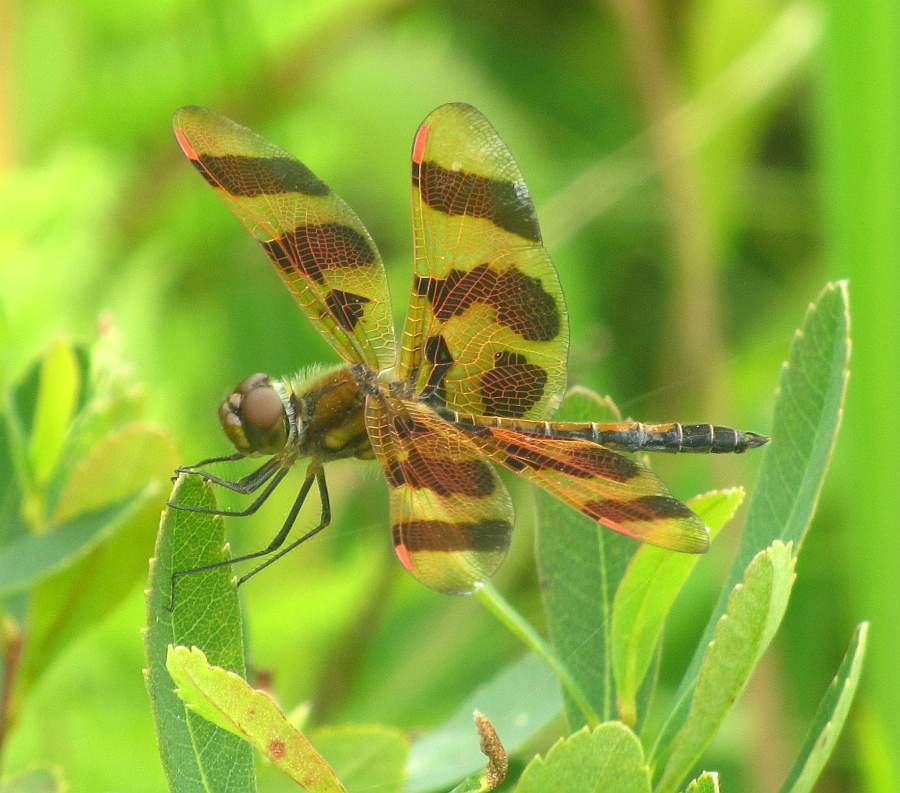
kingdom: Animalia
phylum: Arthropoda
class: Insecta
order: Odonata
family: Libellulidae
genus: Celithemis
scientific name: Celithemis eponina
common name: Halloween pennant
